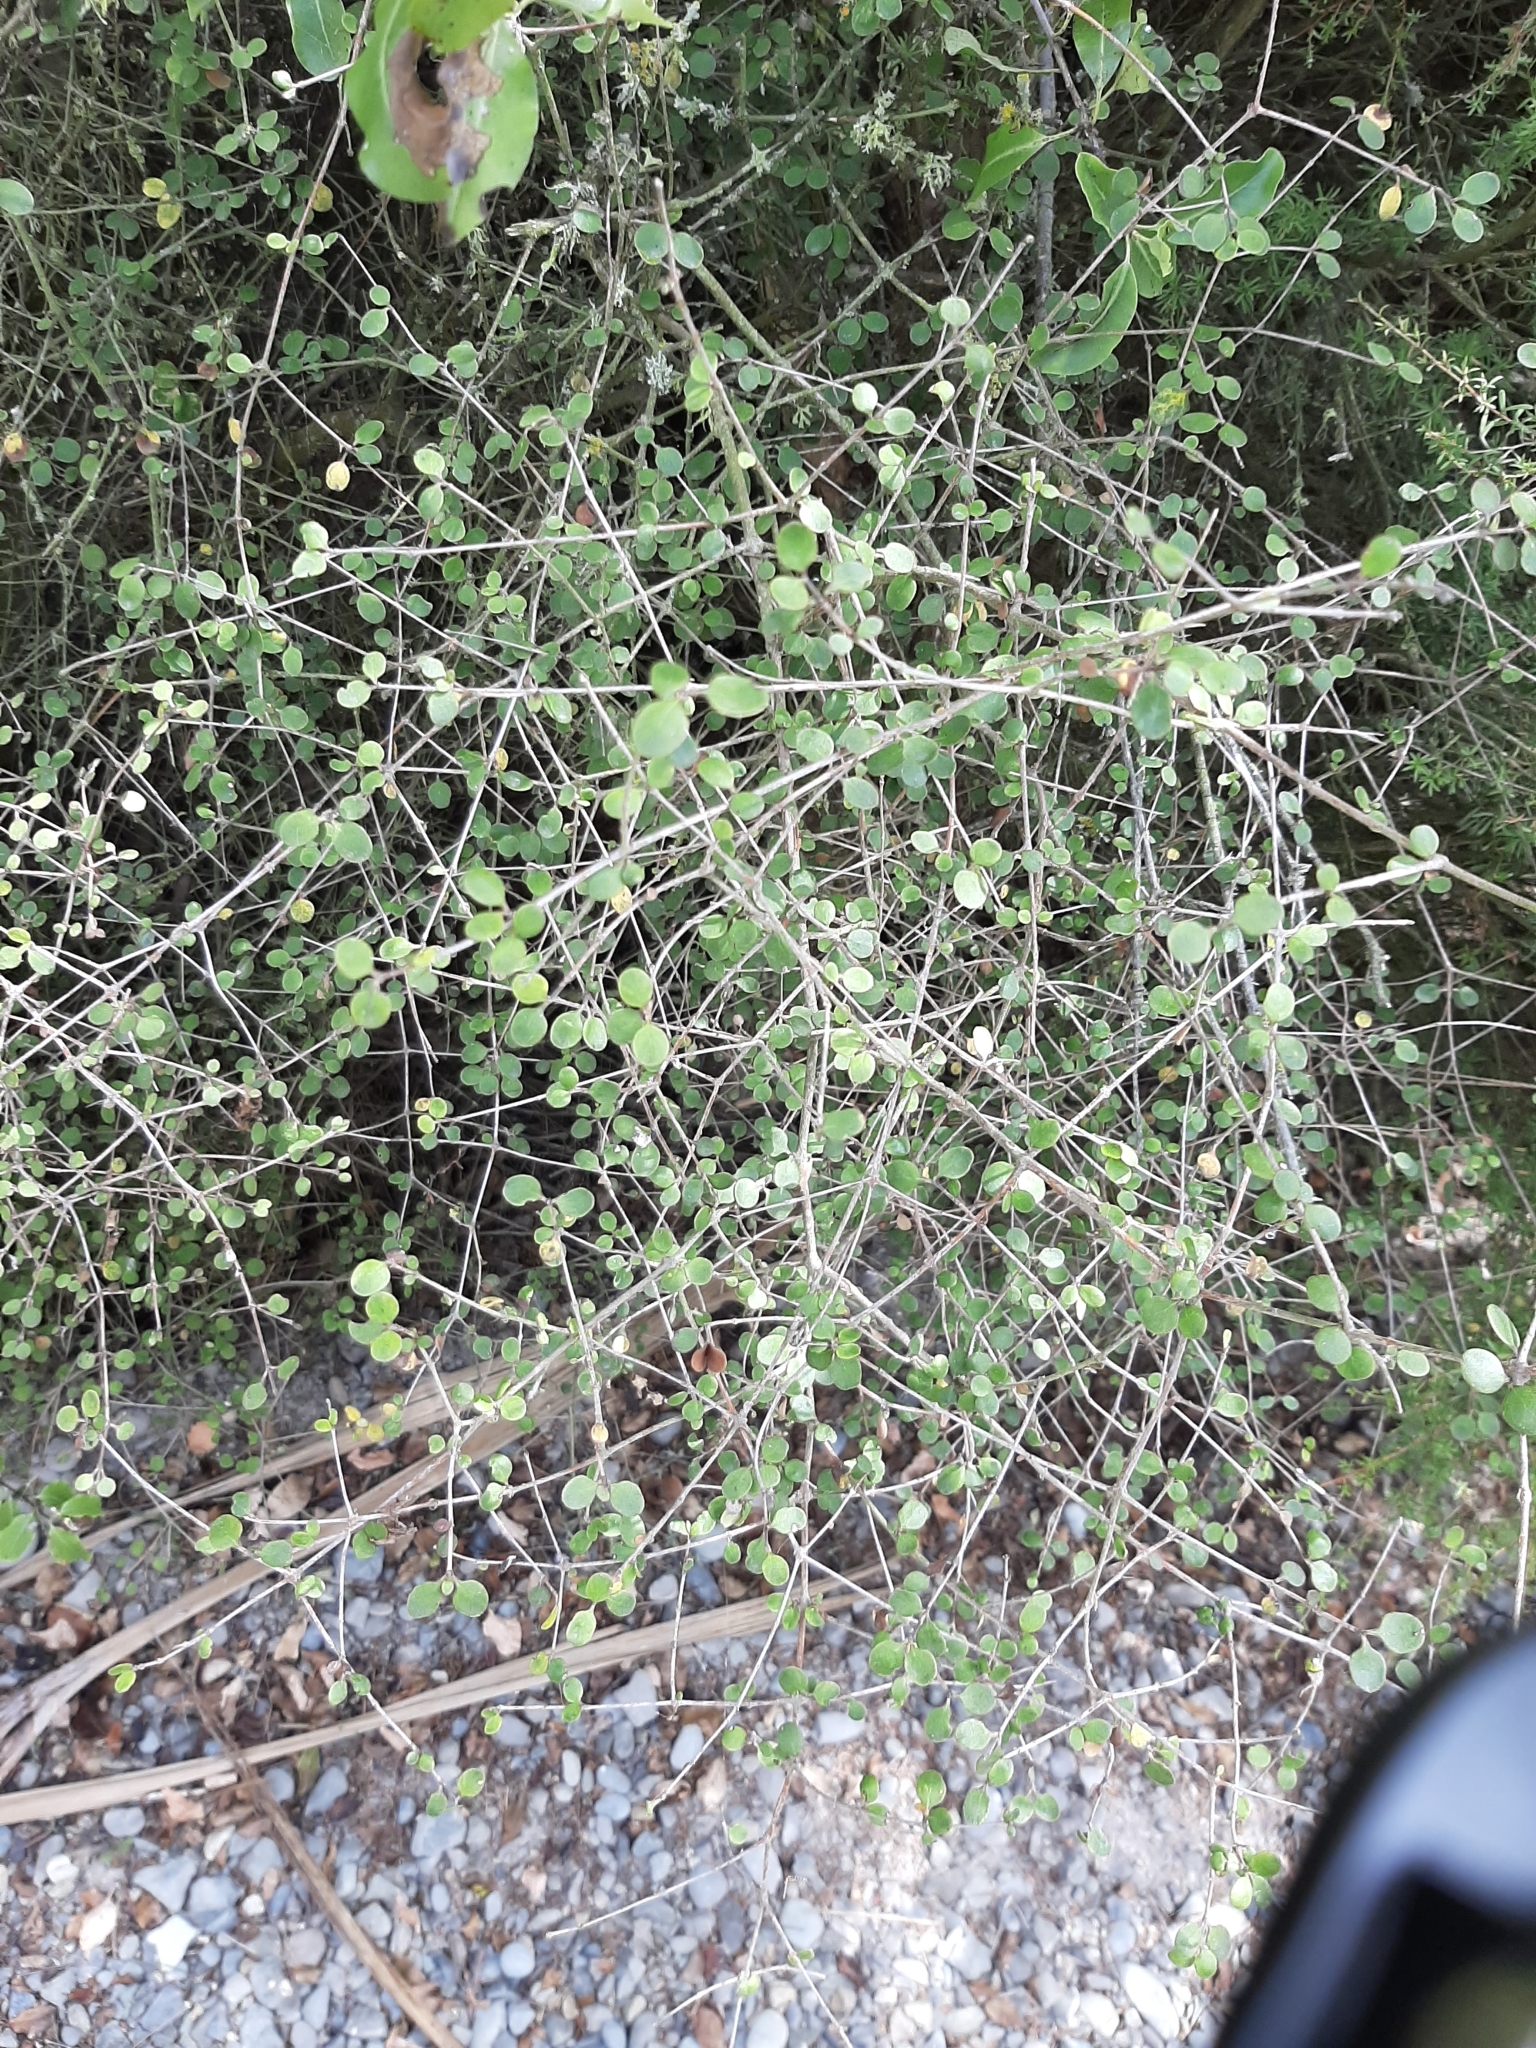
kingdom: Plantae
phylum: Tracheophyta
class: Magnoliopsida
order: Gentianales
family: Rubiaceae
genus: Coprosma
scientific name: Coprosma crassifolia
